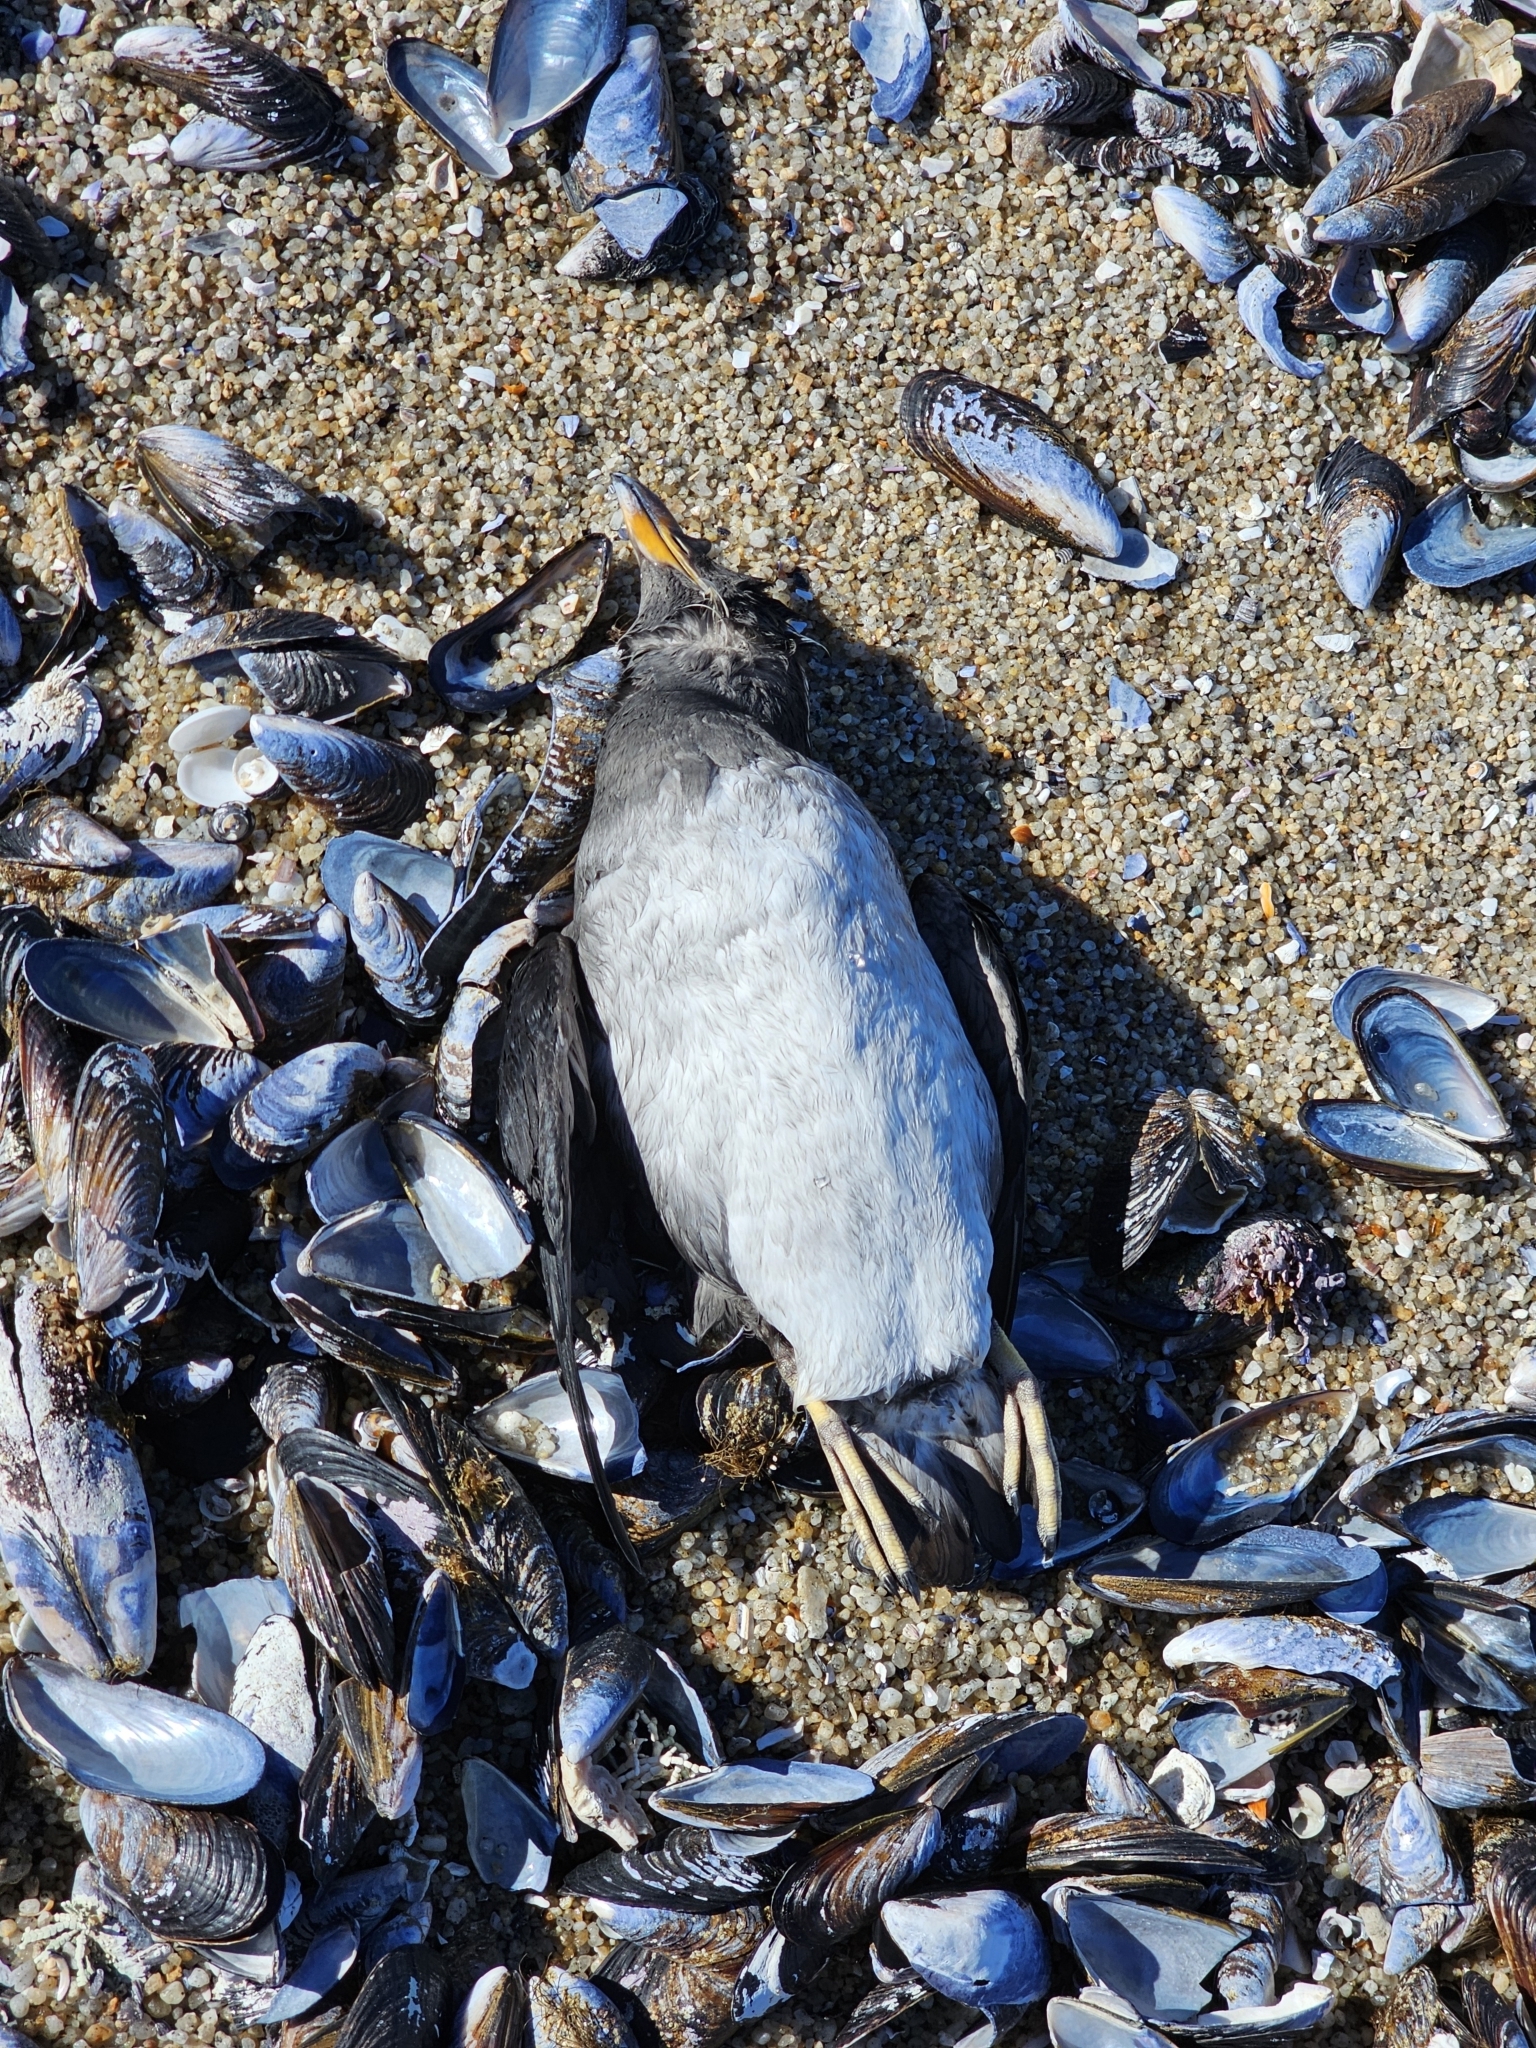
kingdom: Animalia
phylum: Chordata
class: Aves
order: Charadriiformes
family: Alcidae
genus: Cerorhinca
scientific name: Cerorhinca monocerata
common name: Rhinoceros auklet
